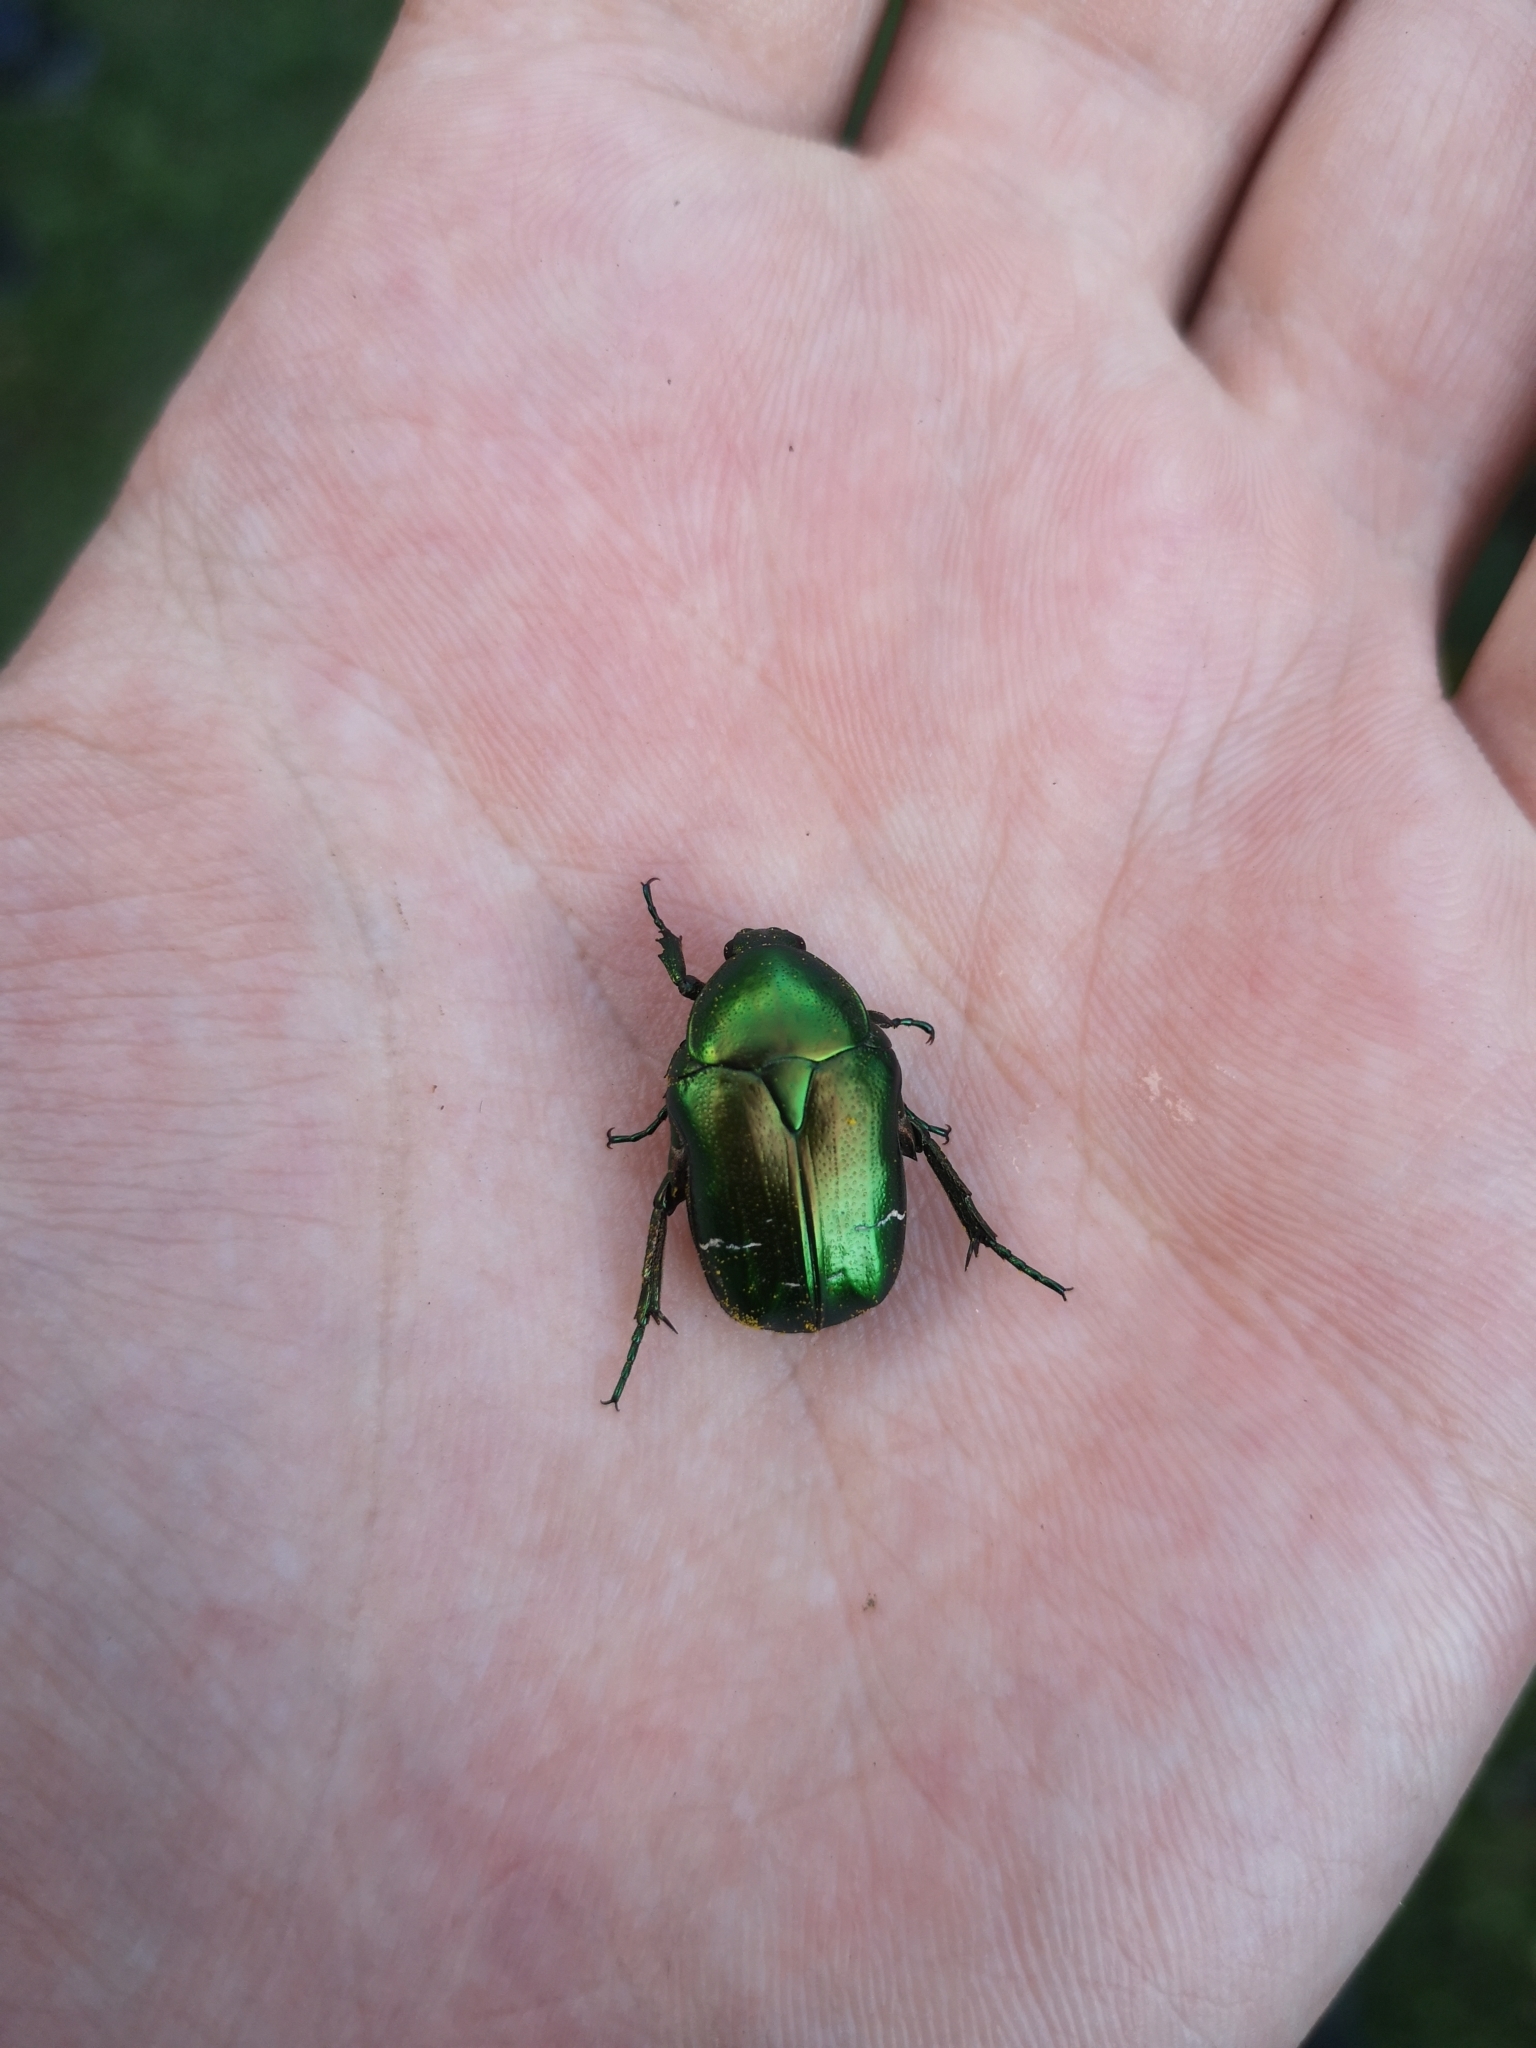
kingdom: Animalia
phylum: Arthropoda
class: Insecta
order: Coleoptera
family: Scarabaeidae
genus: Cetonia
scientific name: Cetonia aurata
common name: Rose chafer
